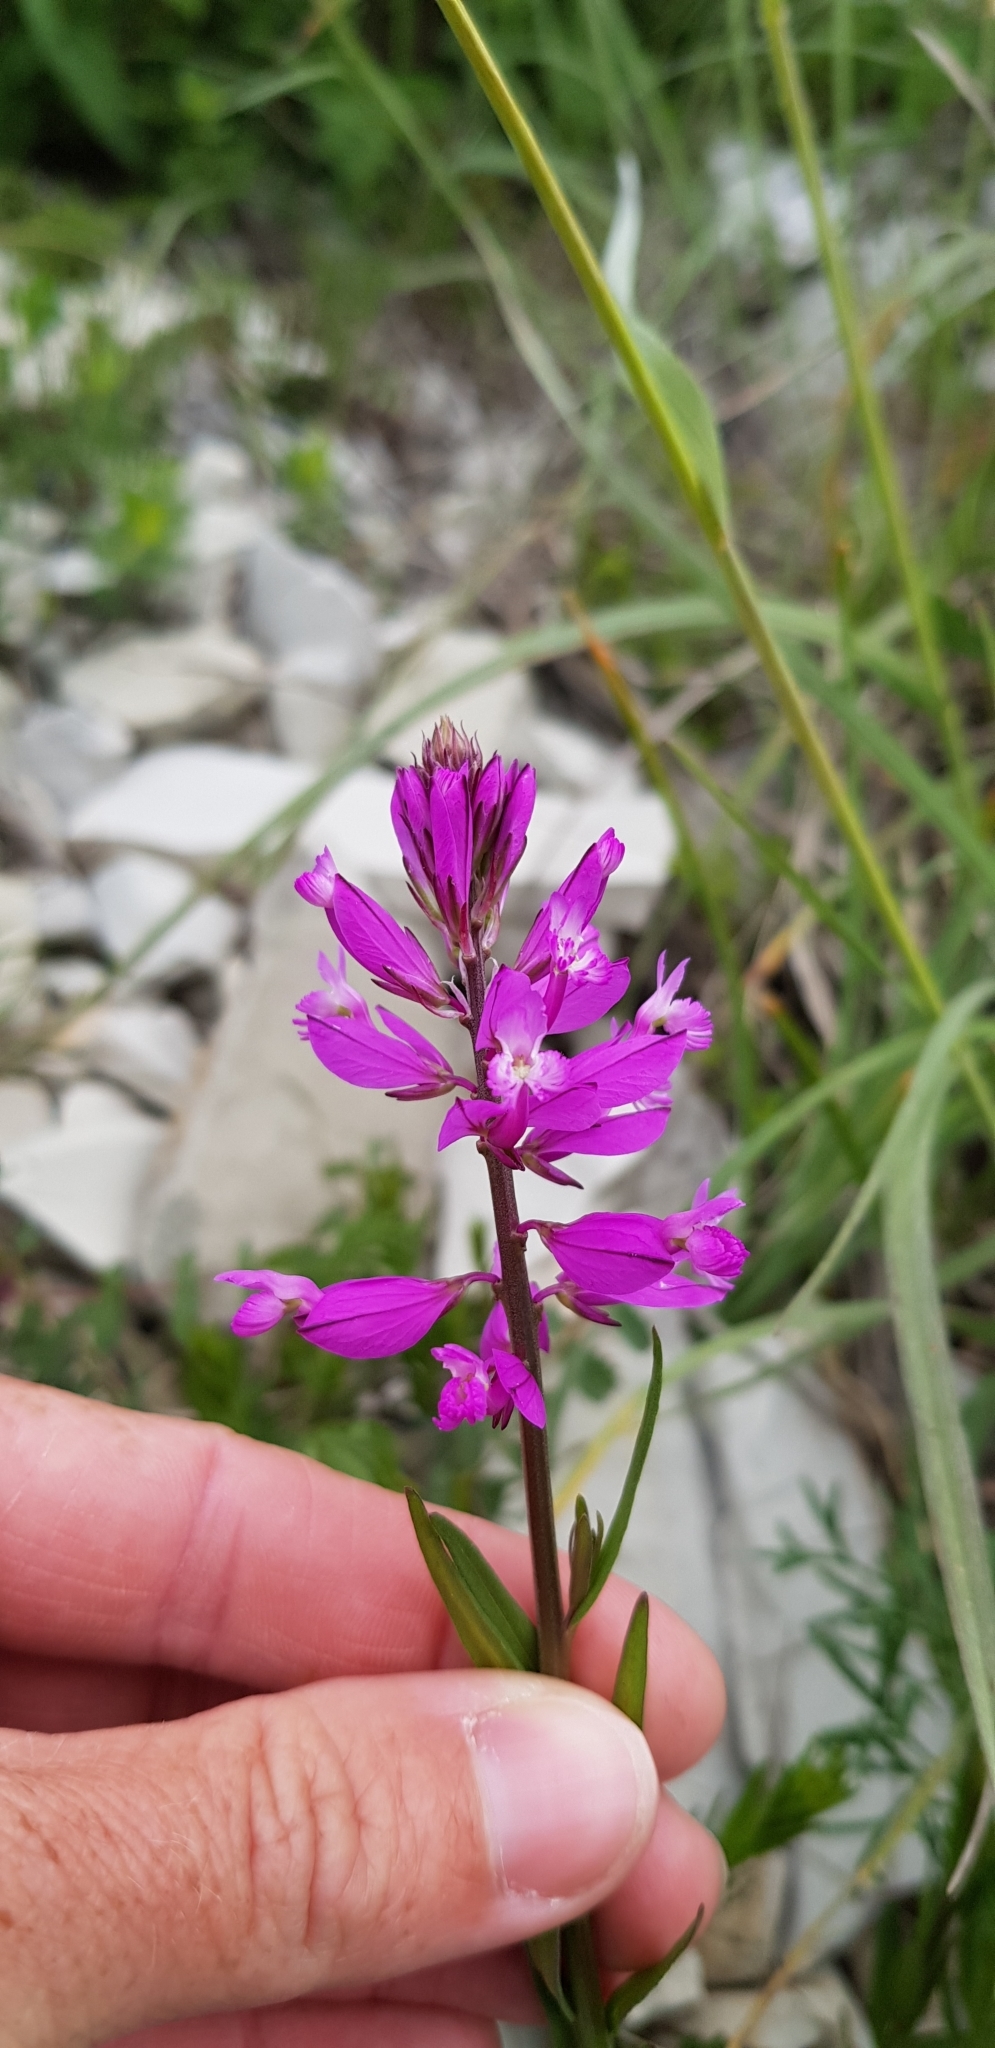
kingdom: Plantae
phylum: Tracheophyta
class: Magnoliopsida
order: Fabales
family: Polygalaceae
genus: Polygala
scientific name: Polygala major
